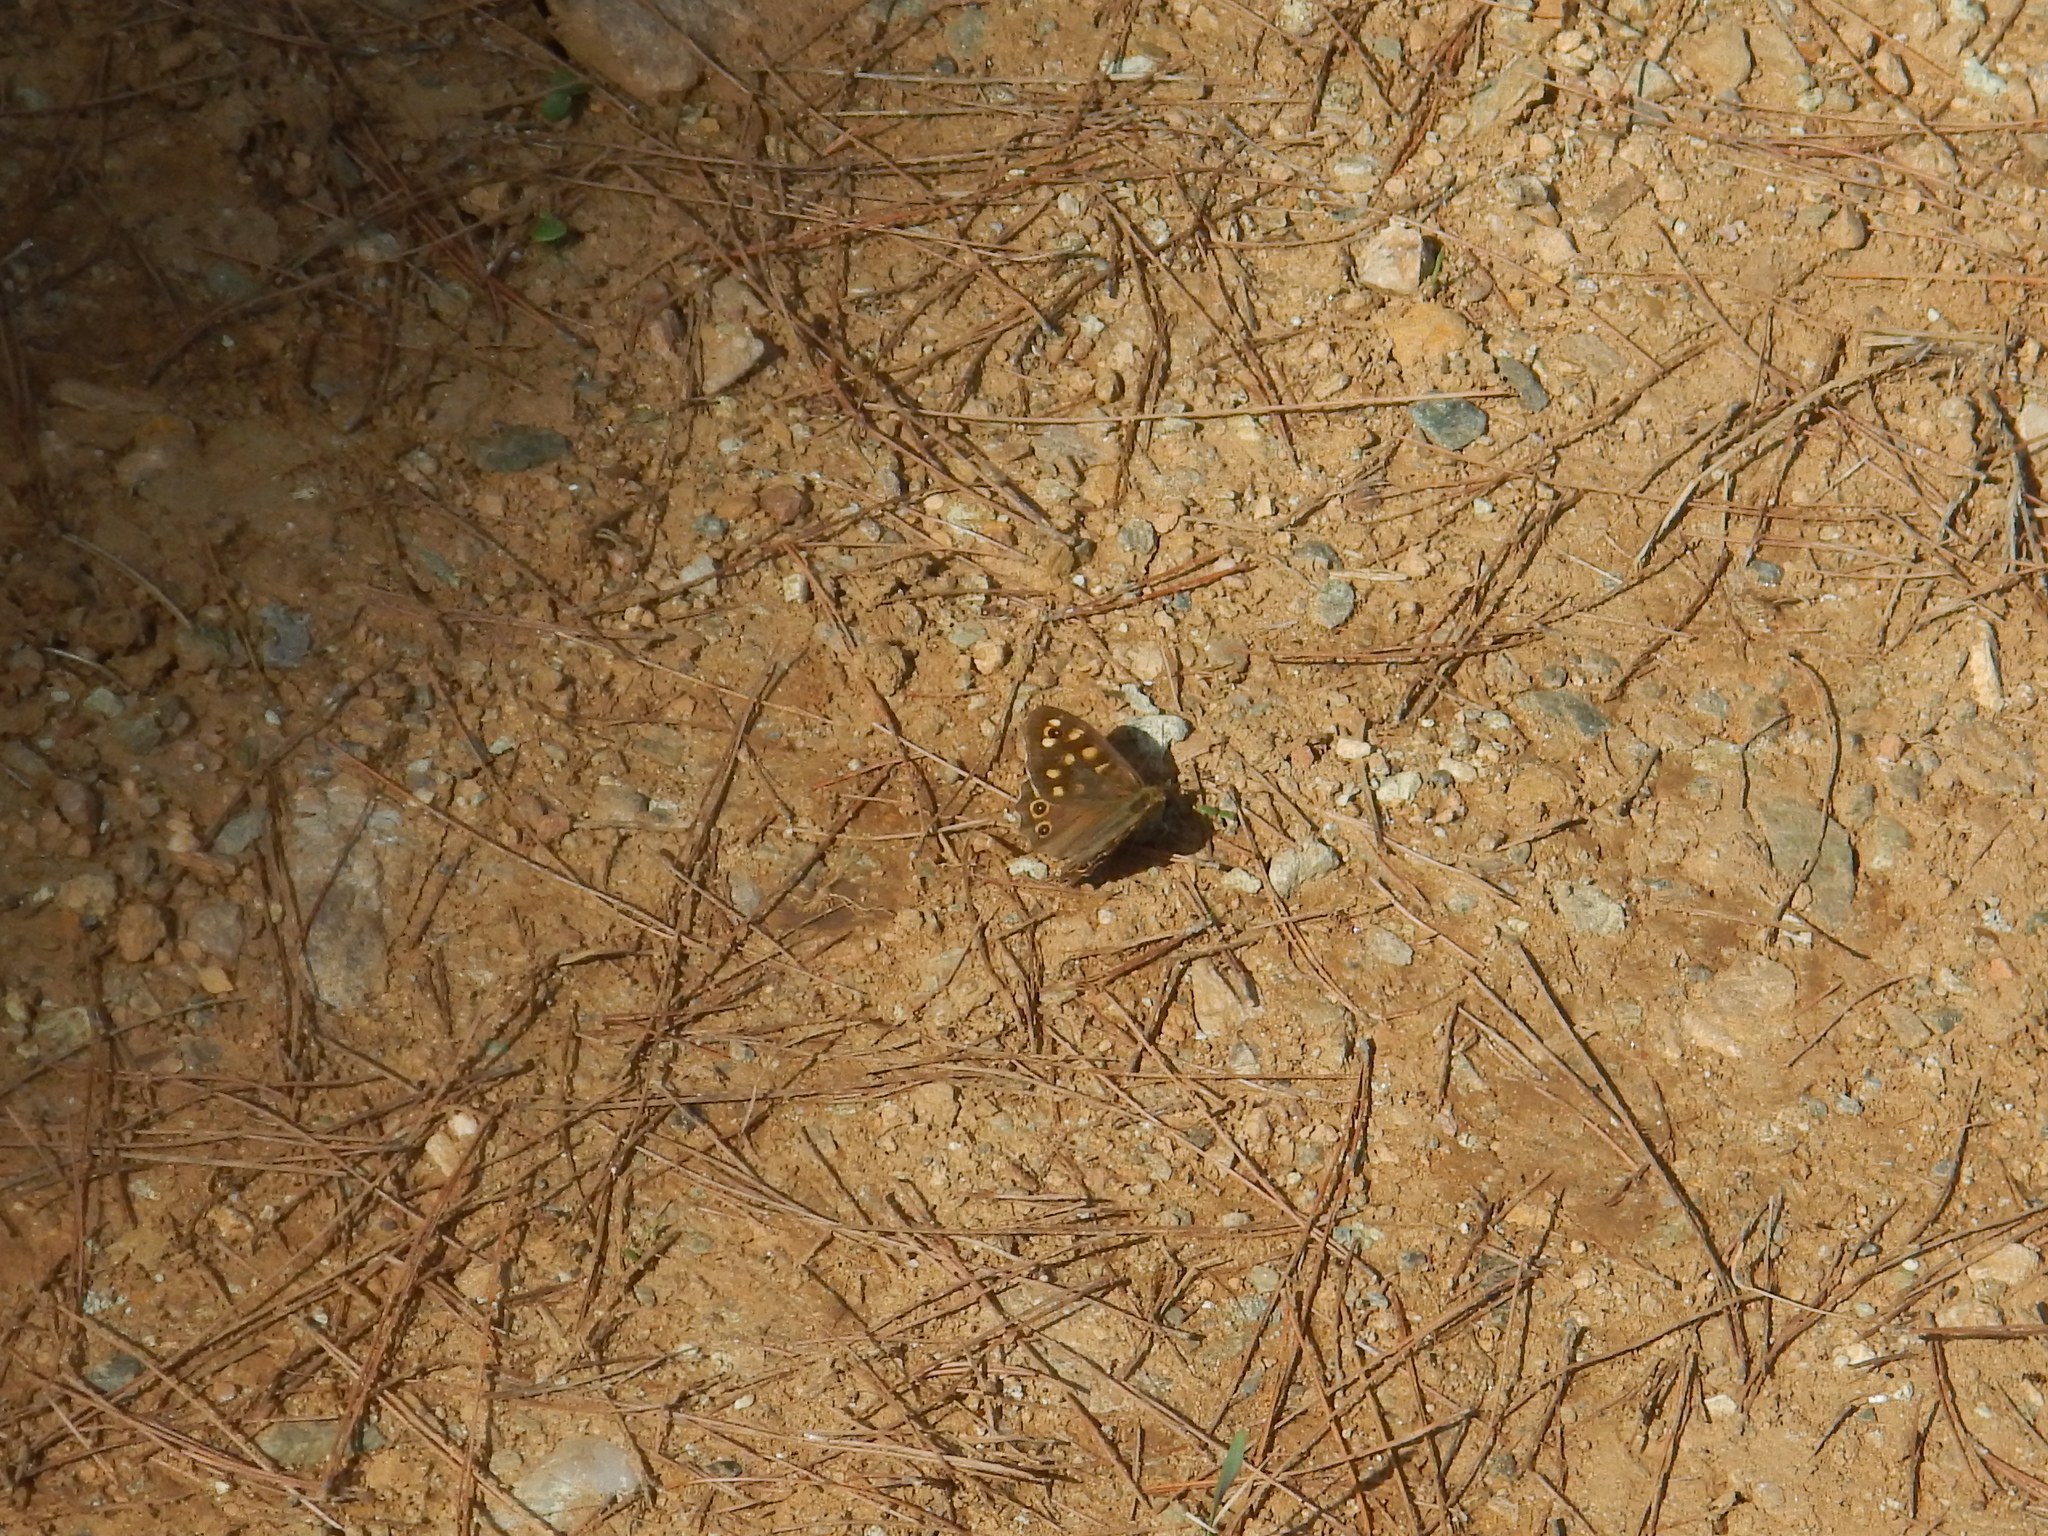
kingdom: Animalia
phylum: Arthropoda
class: Insecta
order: Lepidoptera
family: Nymphalidae
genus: Pararge
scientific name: Pararge aegeria
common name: Speckled wood
